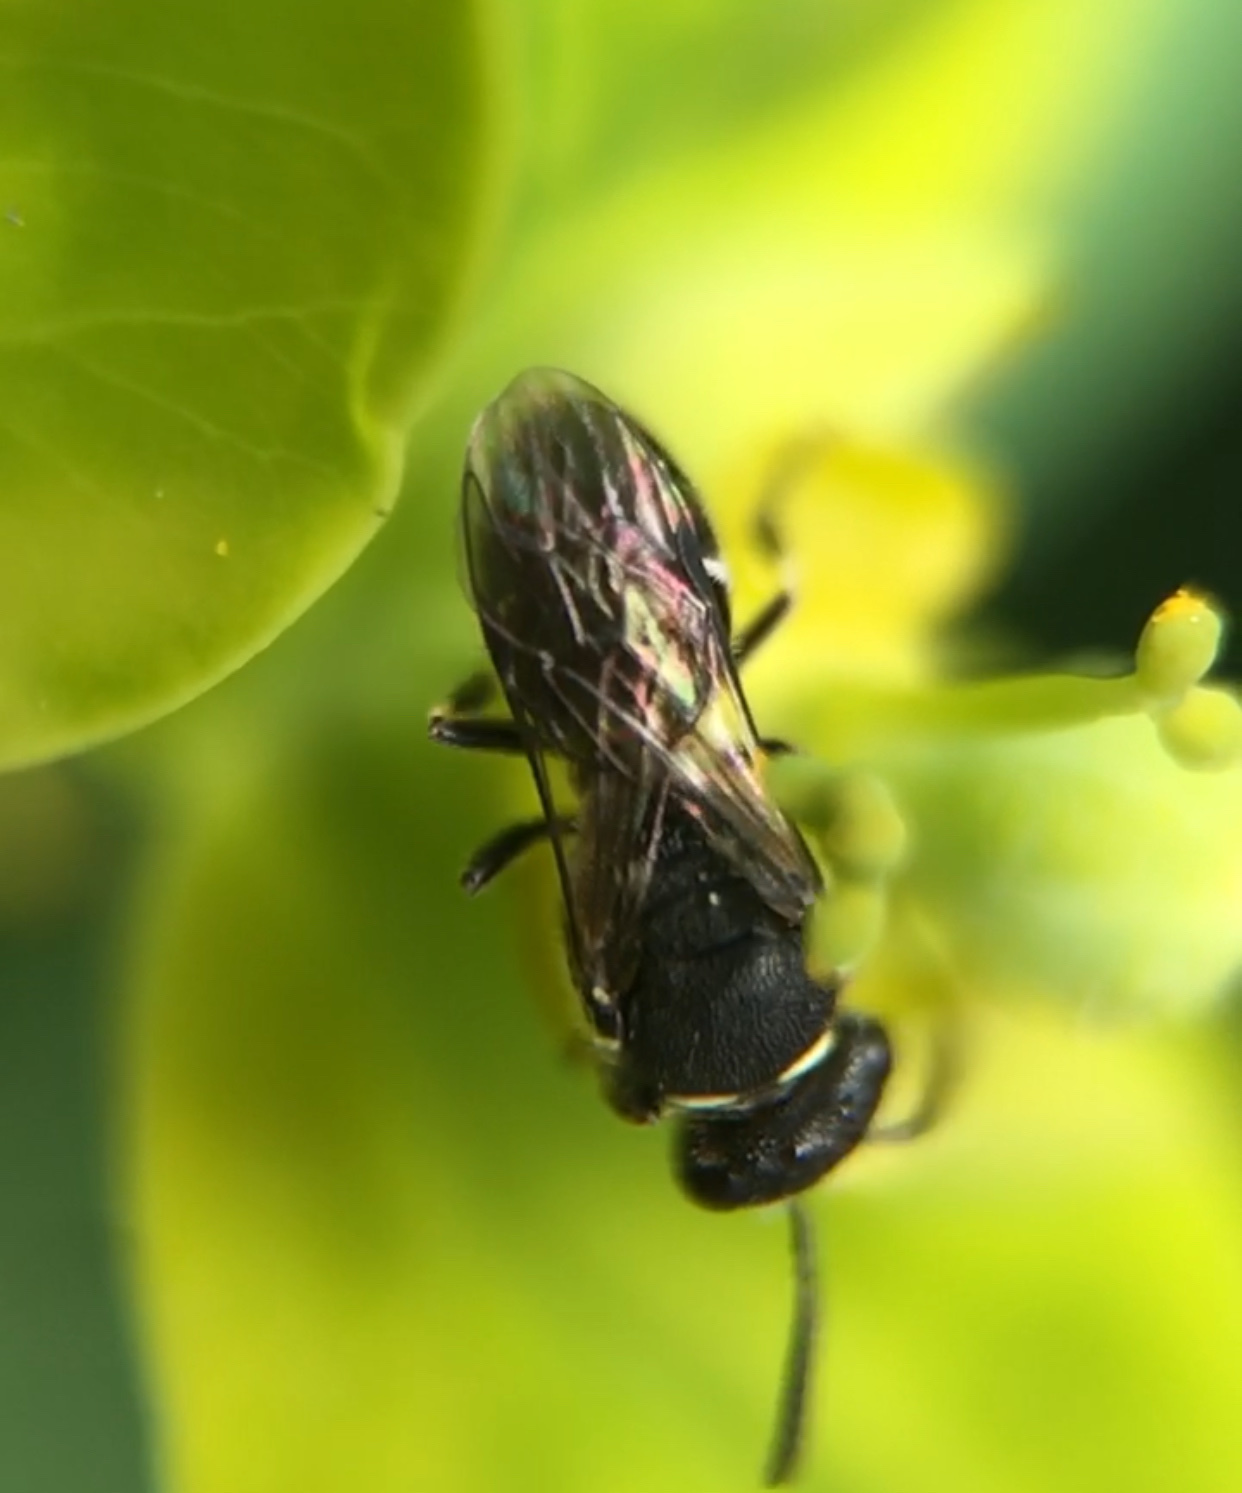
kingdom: Animalia
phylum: Arthropoda
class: Insecta
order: Hymenoptera
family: Colletidae
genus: Hylaeus
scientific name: Hylaeus
